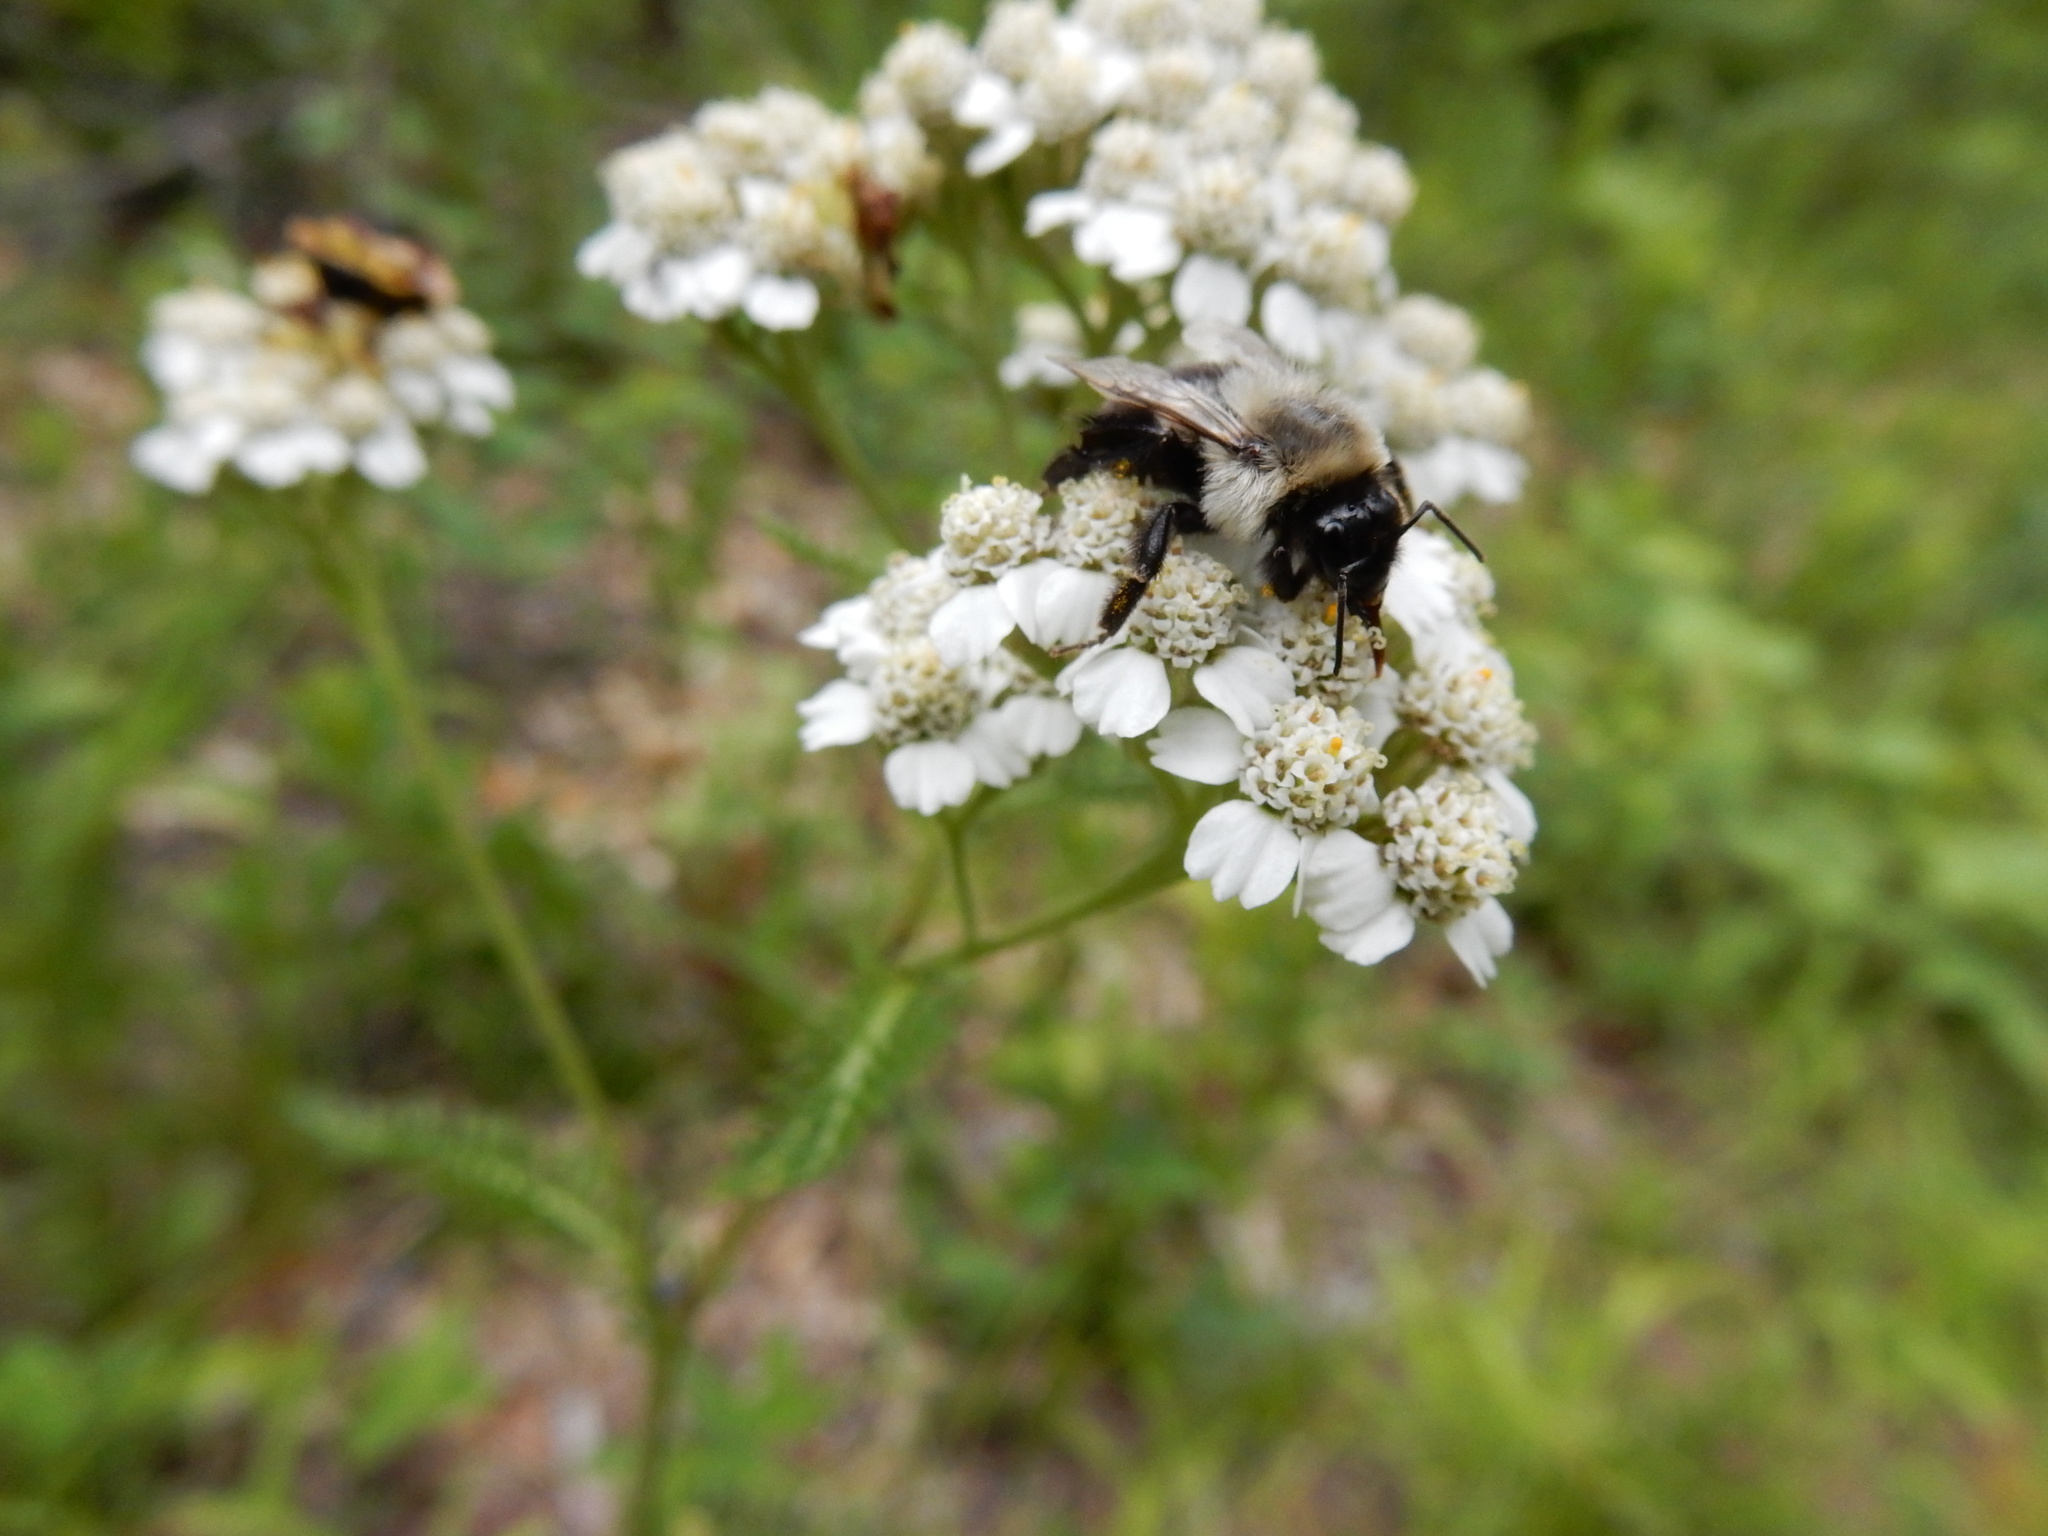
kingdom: Animalia
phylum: Arthropoda
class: Insecta
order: Hymenoptera
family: Apidae
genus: Bombus
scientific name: Bombus impatiens
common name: Common eastern bumble bee
